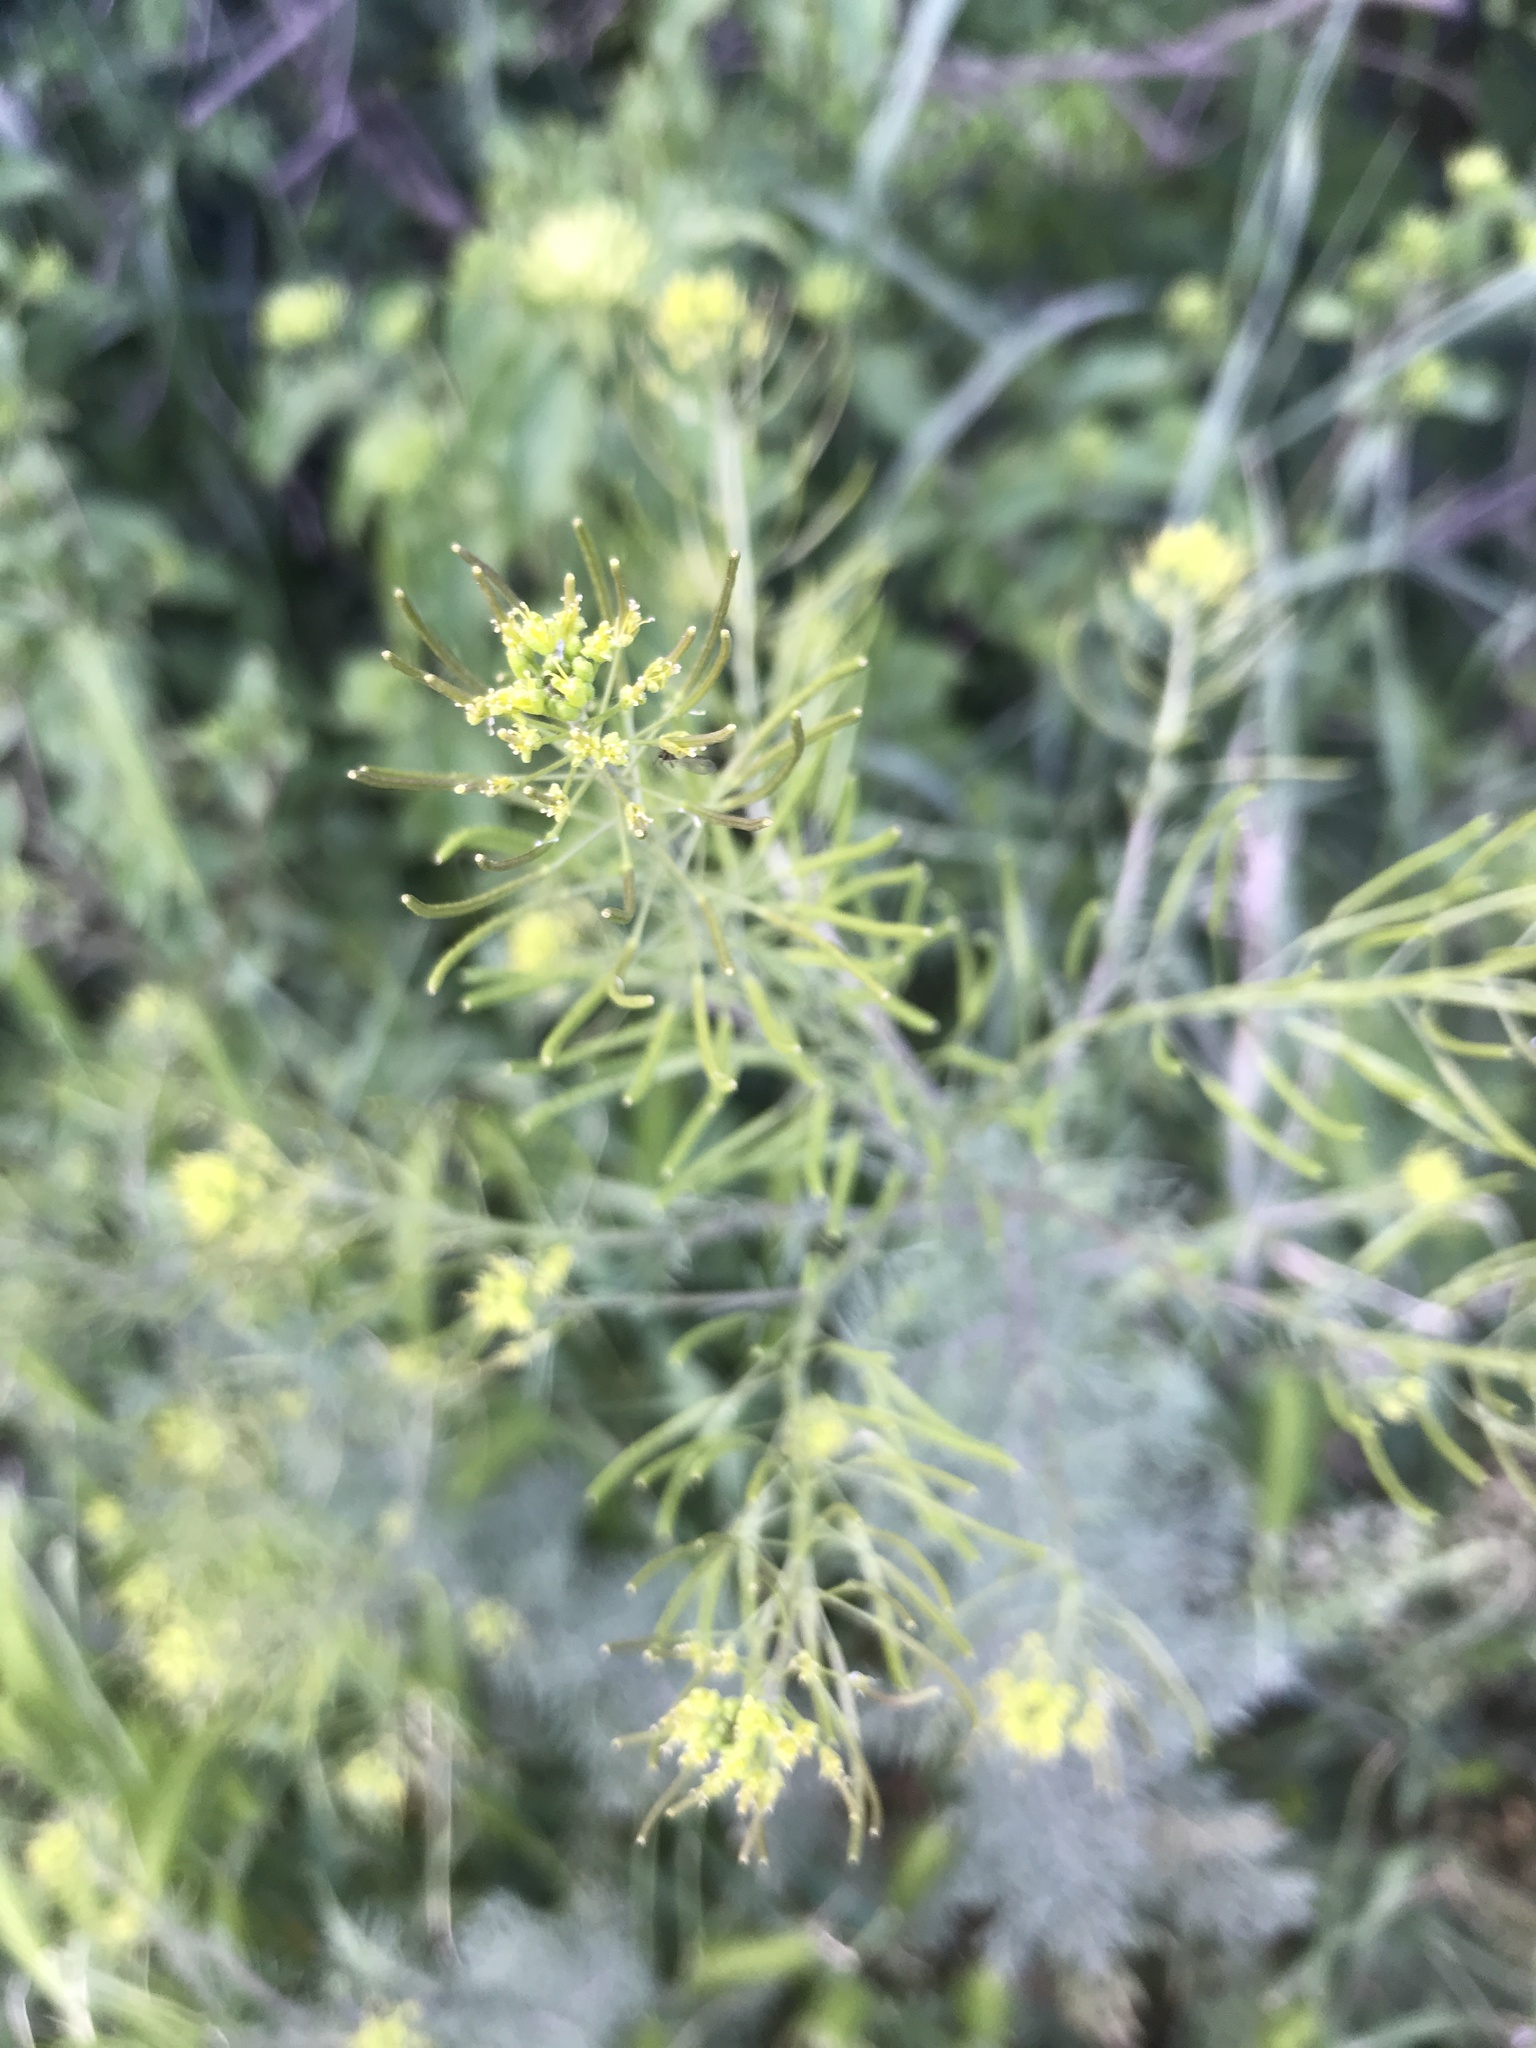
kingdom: Plantae
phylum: Tracheophyta
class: Magnoliopsida
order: Brassicales
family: Brassicaceae
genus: Descurainia
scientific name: Descurainia sophia
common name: Flixweed
